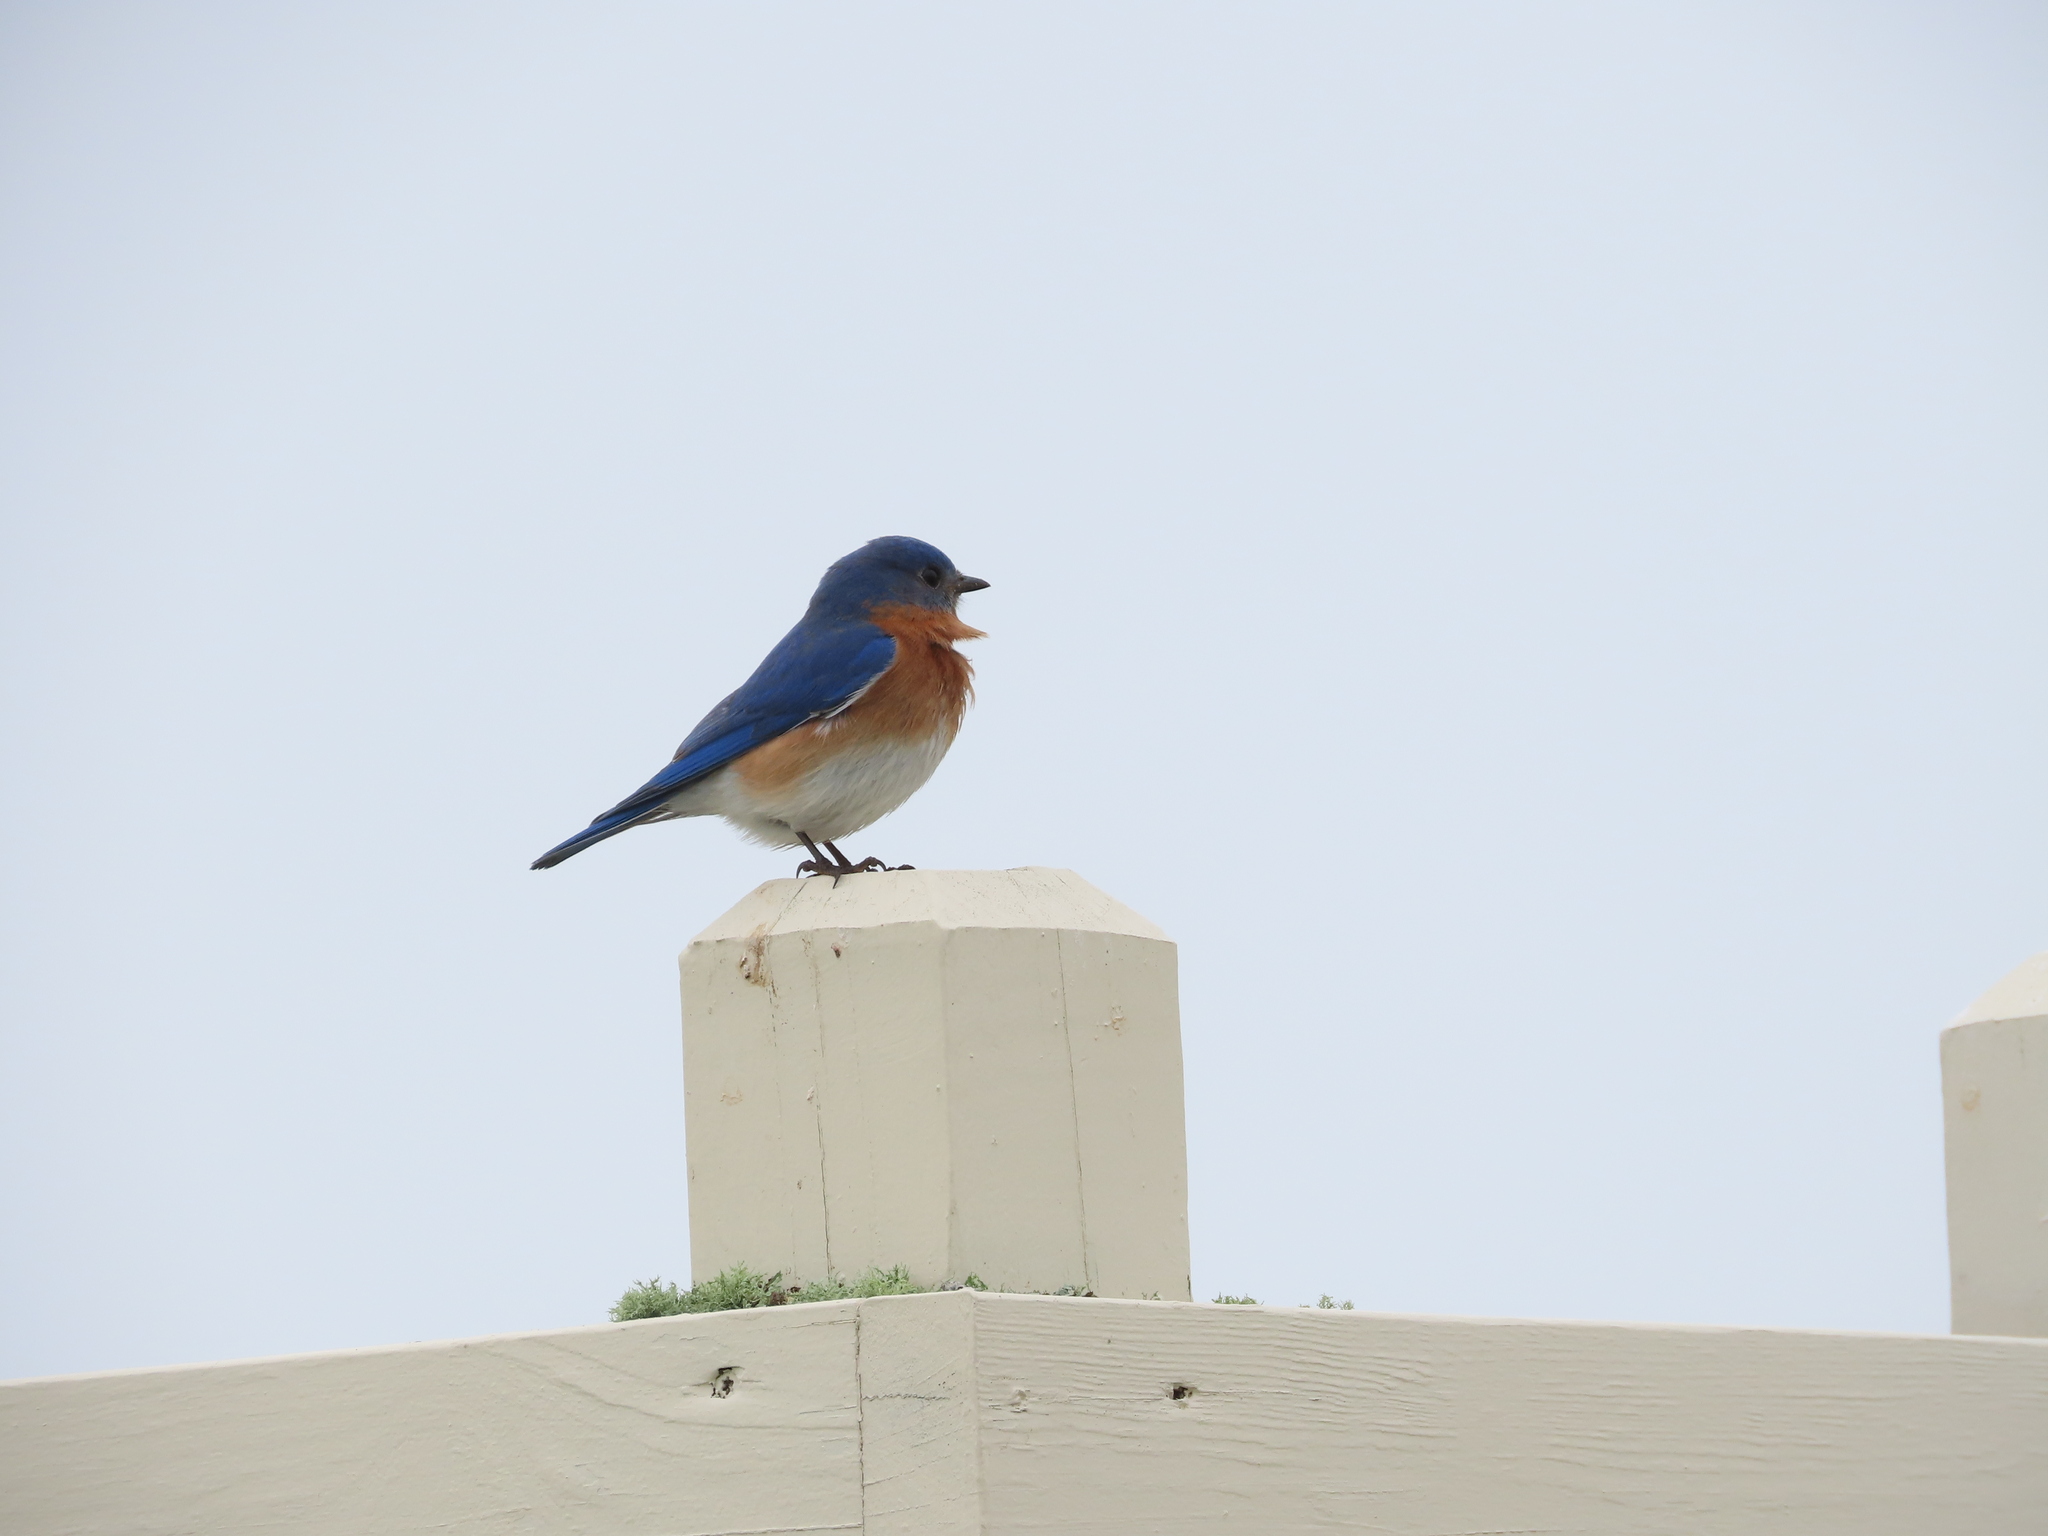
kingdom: Animalia
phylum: Chordata
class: Aves
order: Passeriformes
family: Turdidae
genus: Sialia
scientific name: Sialia sialis
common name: Eastern bluebird
